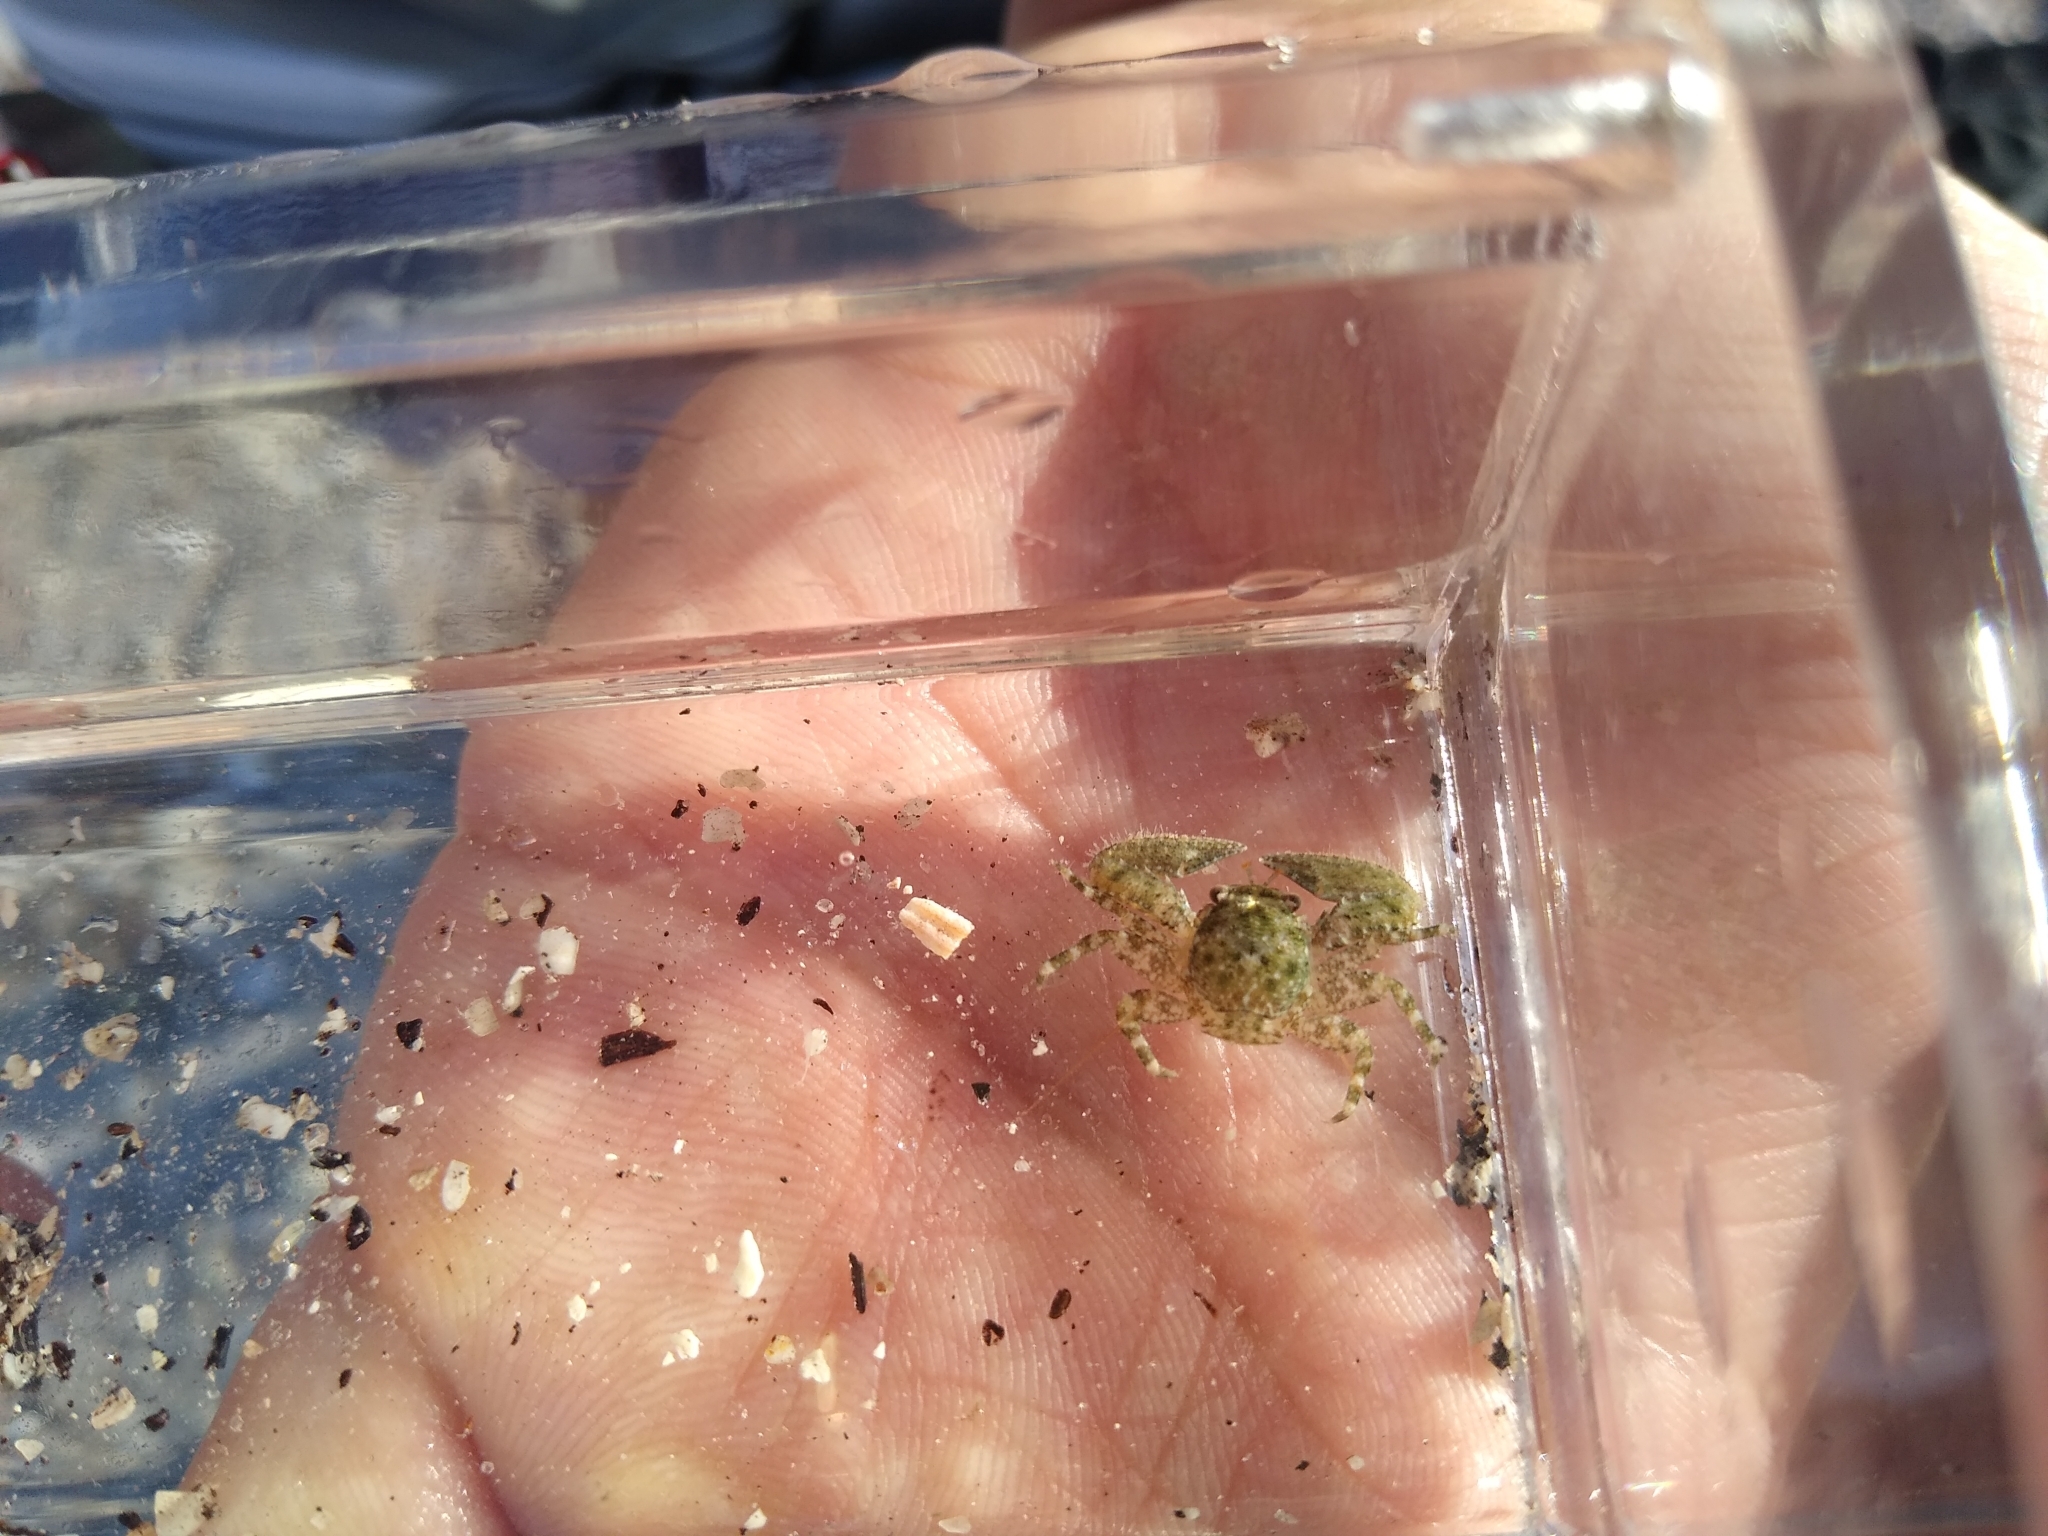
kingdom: Animalia
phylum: Arthropoda
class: Malacostraca
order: Decapoda
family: Porcellanidae
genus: Petrolisthes
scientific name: Petrolisthes armatus
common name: Green porcelain crab
